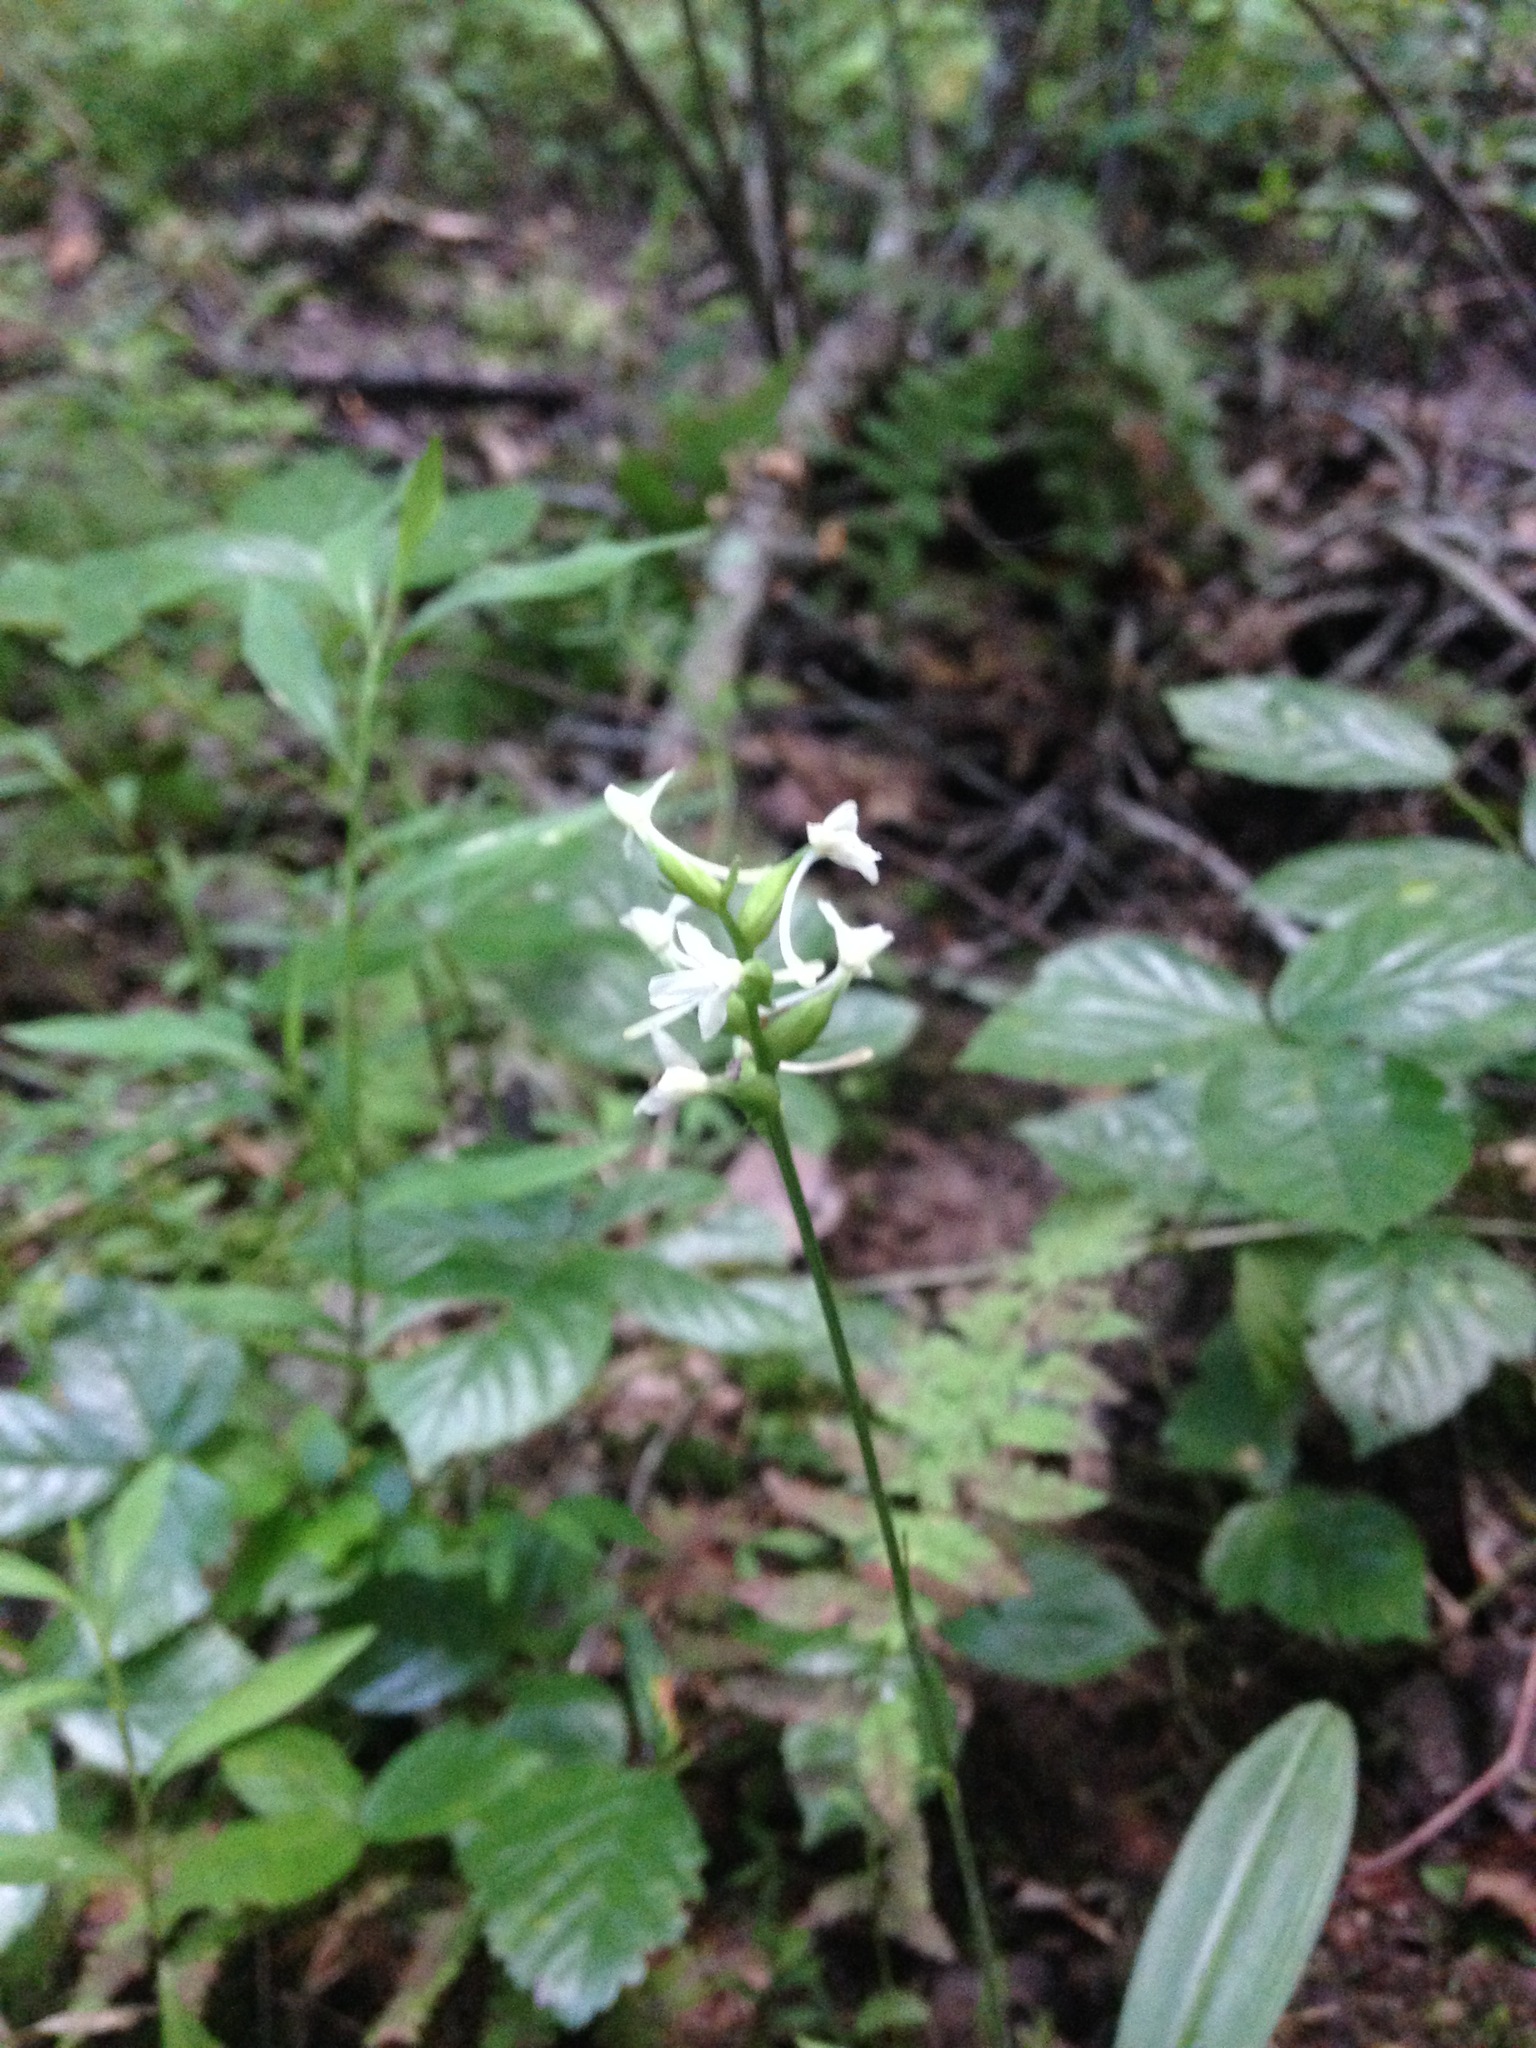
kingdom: Plantae
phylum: Tracheophyta
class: Liliopsida
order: Asparagales
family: Orchidaceae
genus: Platanthera
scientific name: Platanthera clavellata
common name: Club-spur orchid
